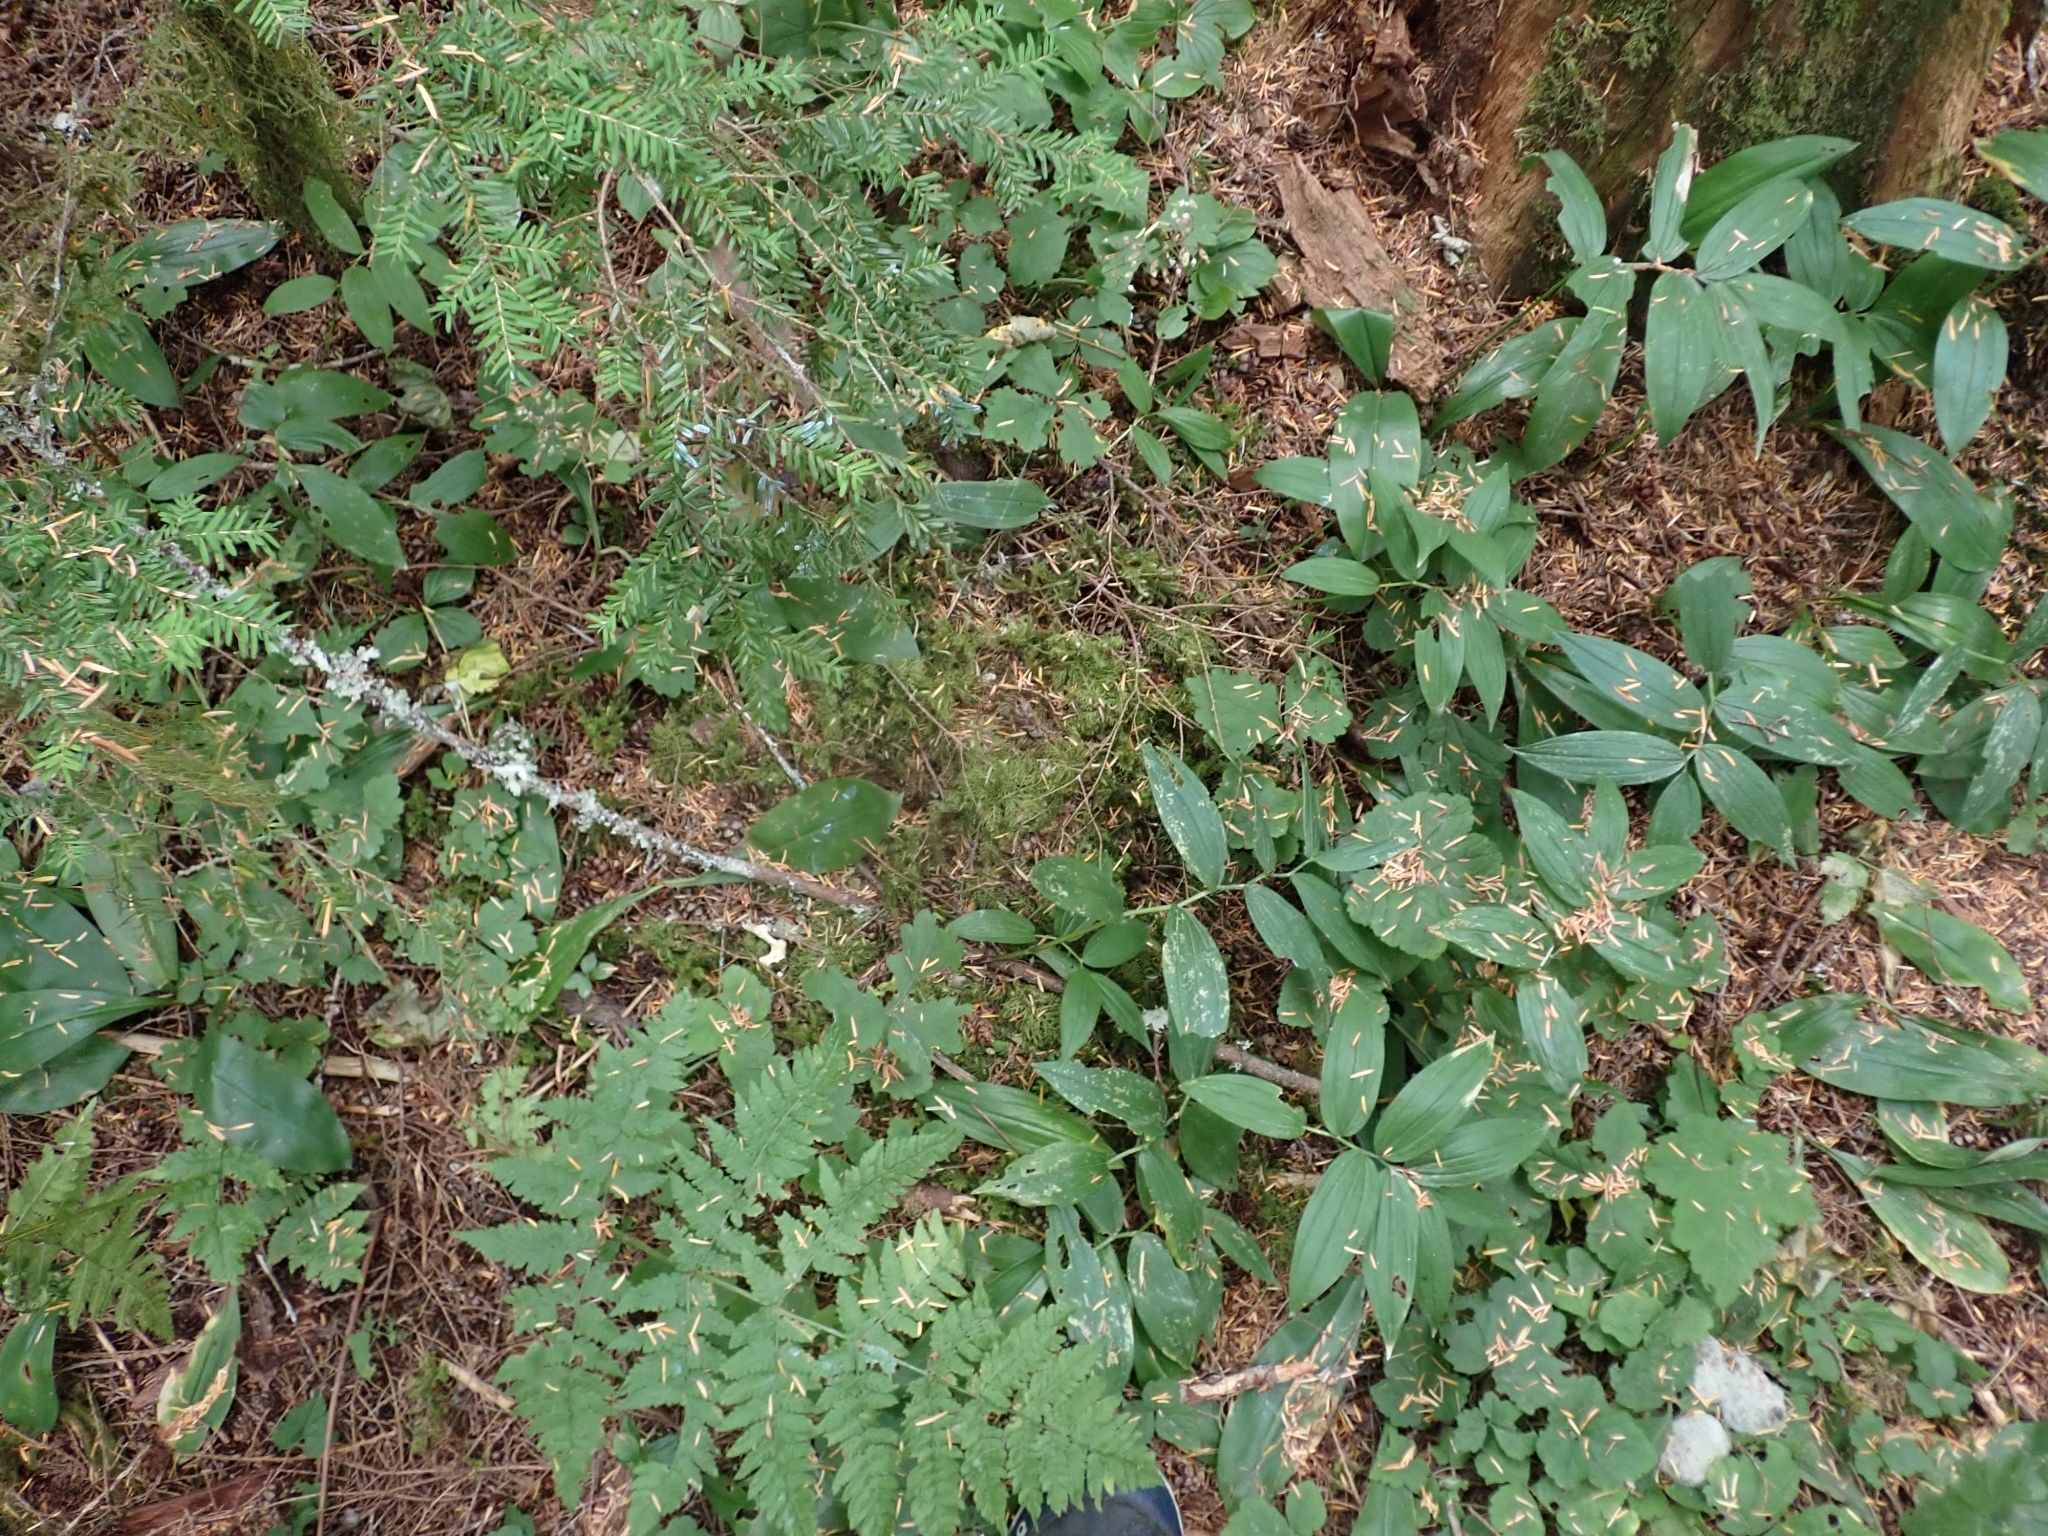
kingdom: Plantae
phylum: Bryophyta
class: Bryopsida
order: Hypnales
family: Hylocomiaceae
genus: Hylocomium
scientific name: Hylocomium splendens
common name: Stairstep moss
